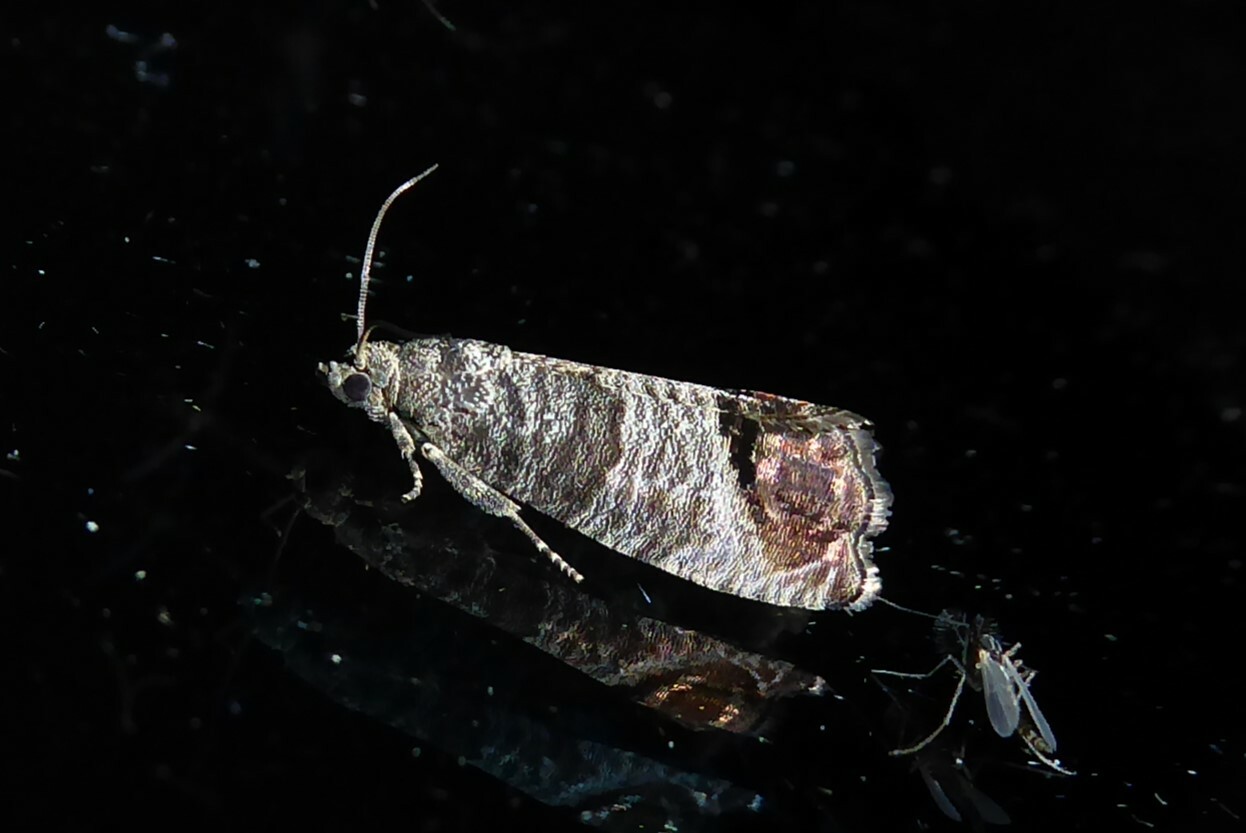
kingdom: Animalia
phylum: Arthropoda
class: Insecta
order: Lepidoptera
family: Tortricidae
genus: Cydia
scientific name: Cydia pomonella
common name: Codling moth
